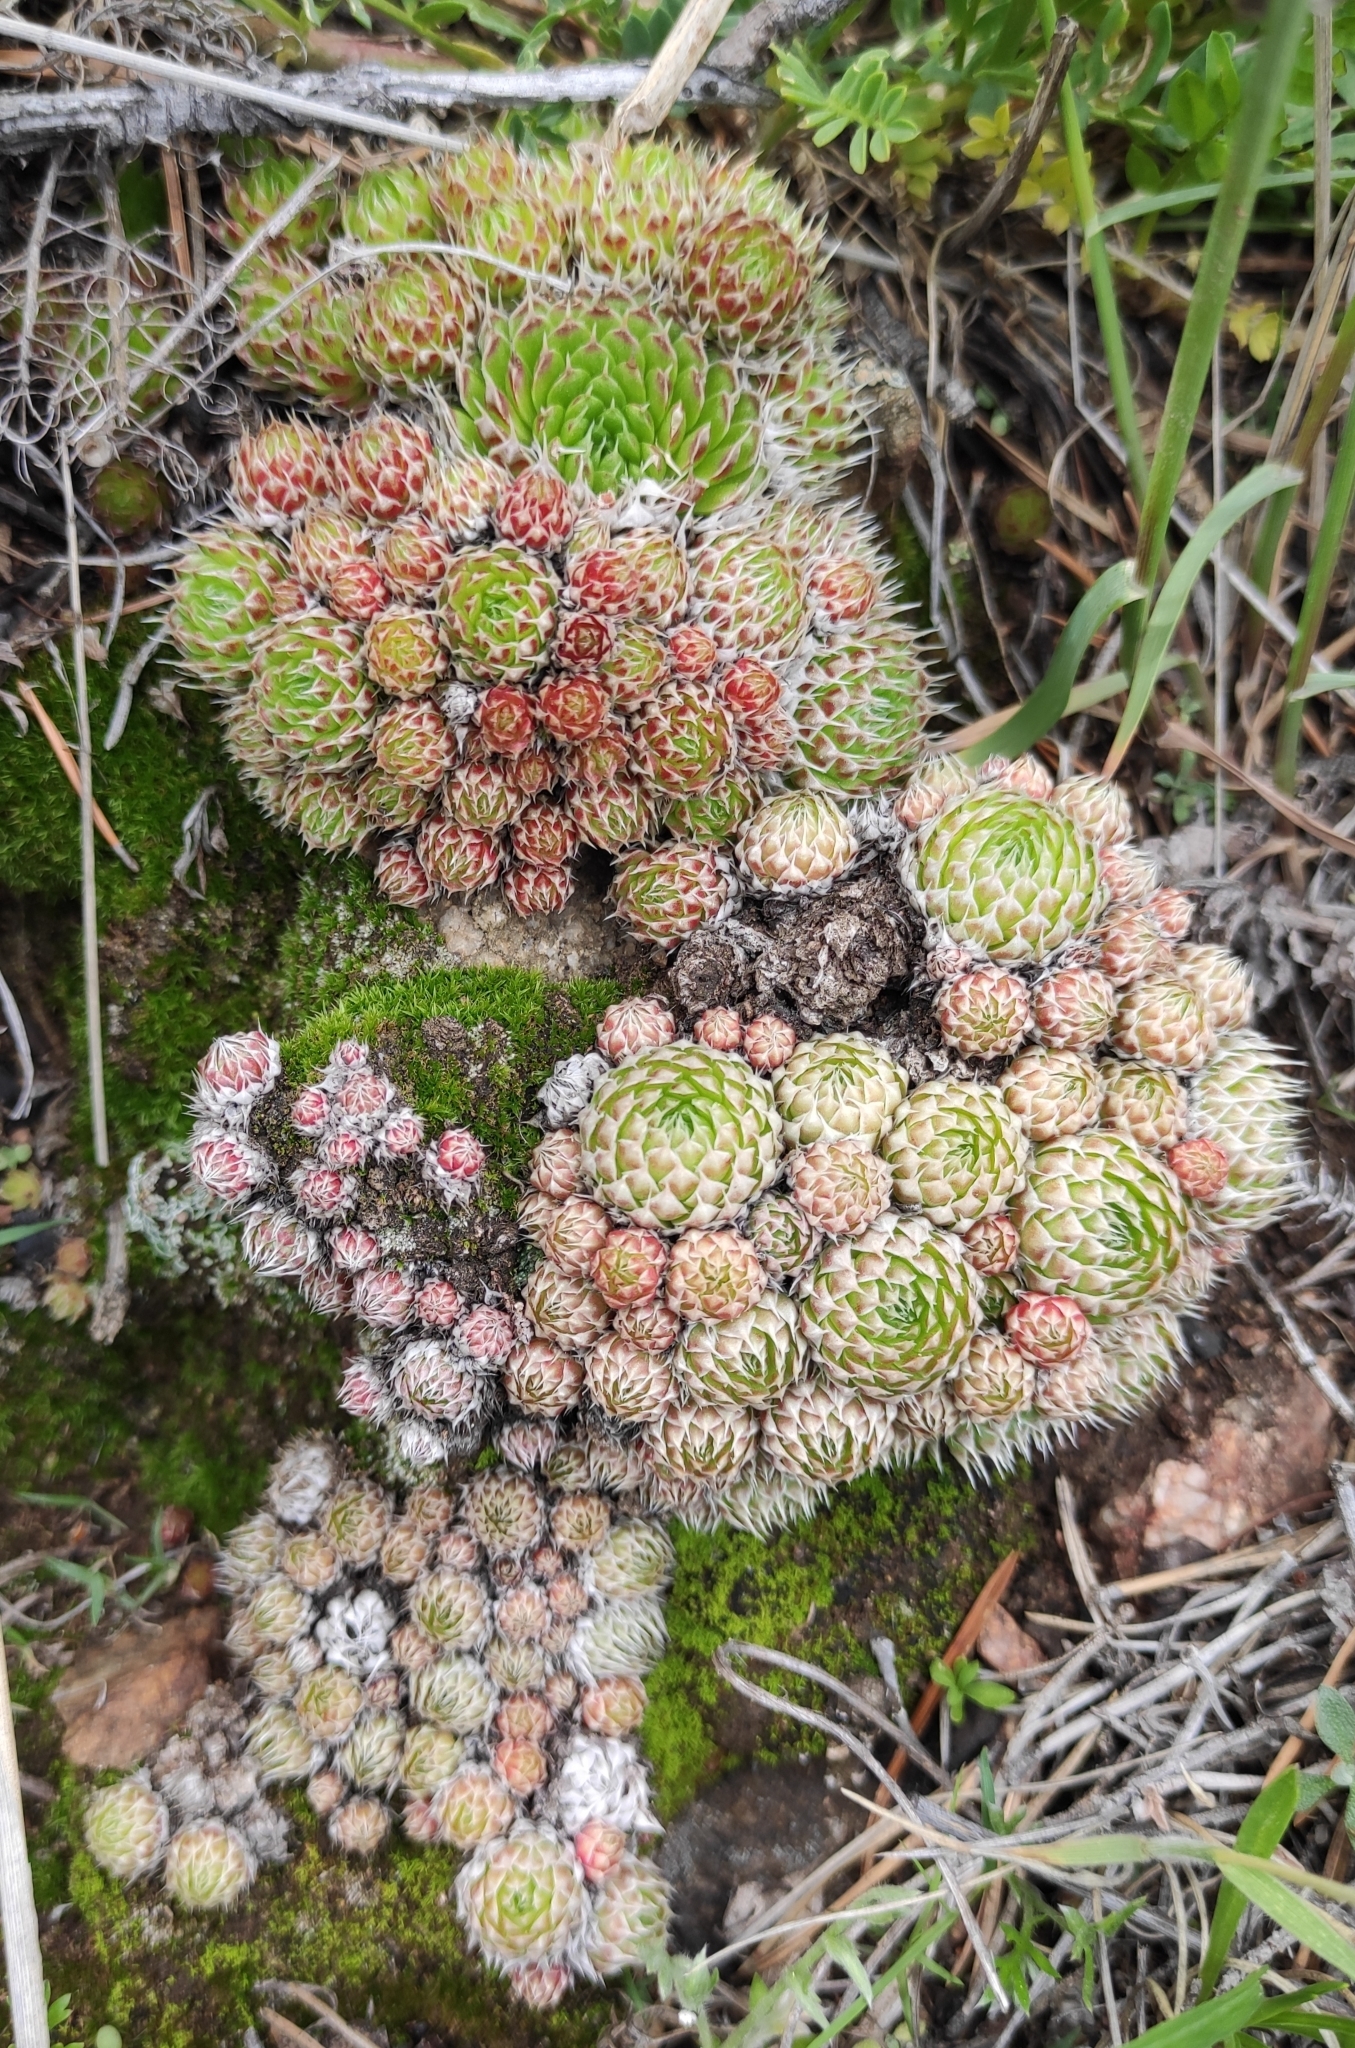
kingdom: Plantae
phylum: Tracheophyta
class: Magnoliopsida
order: Saxifragales
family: Crassulaceae
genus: Orostachys
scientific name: Orostachys spinosa
